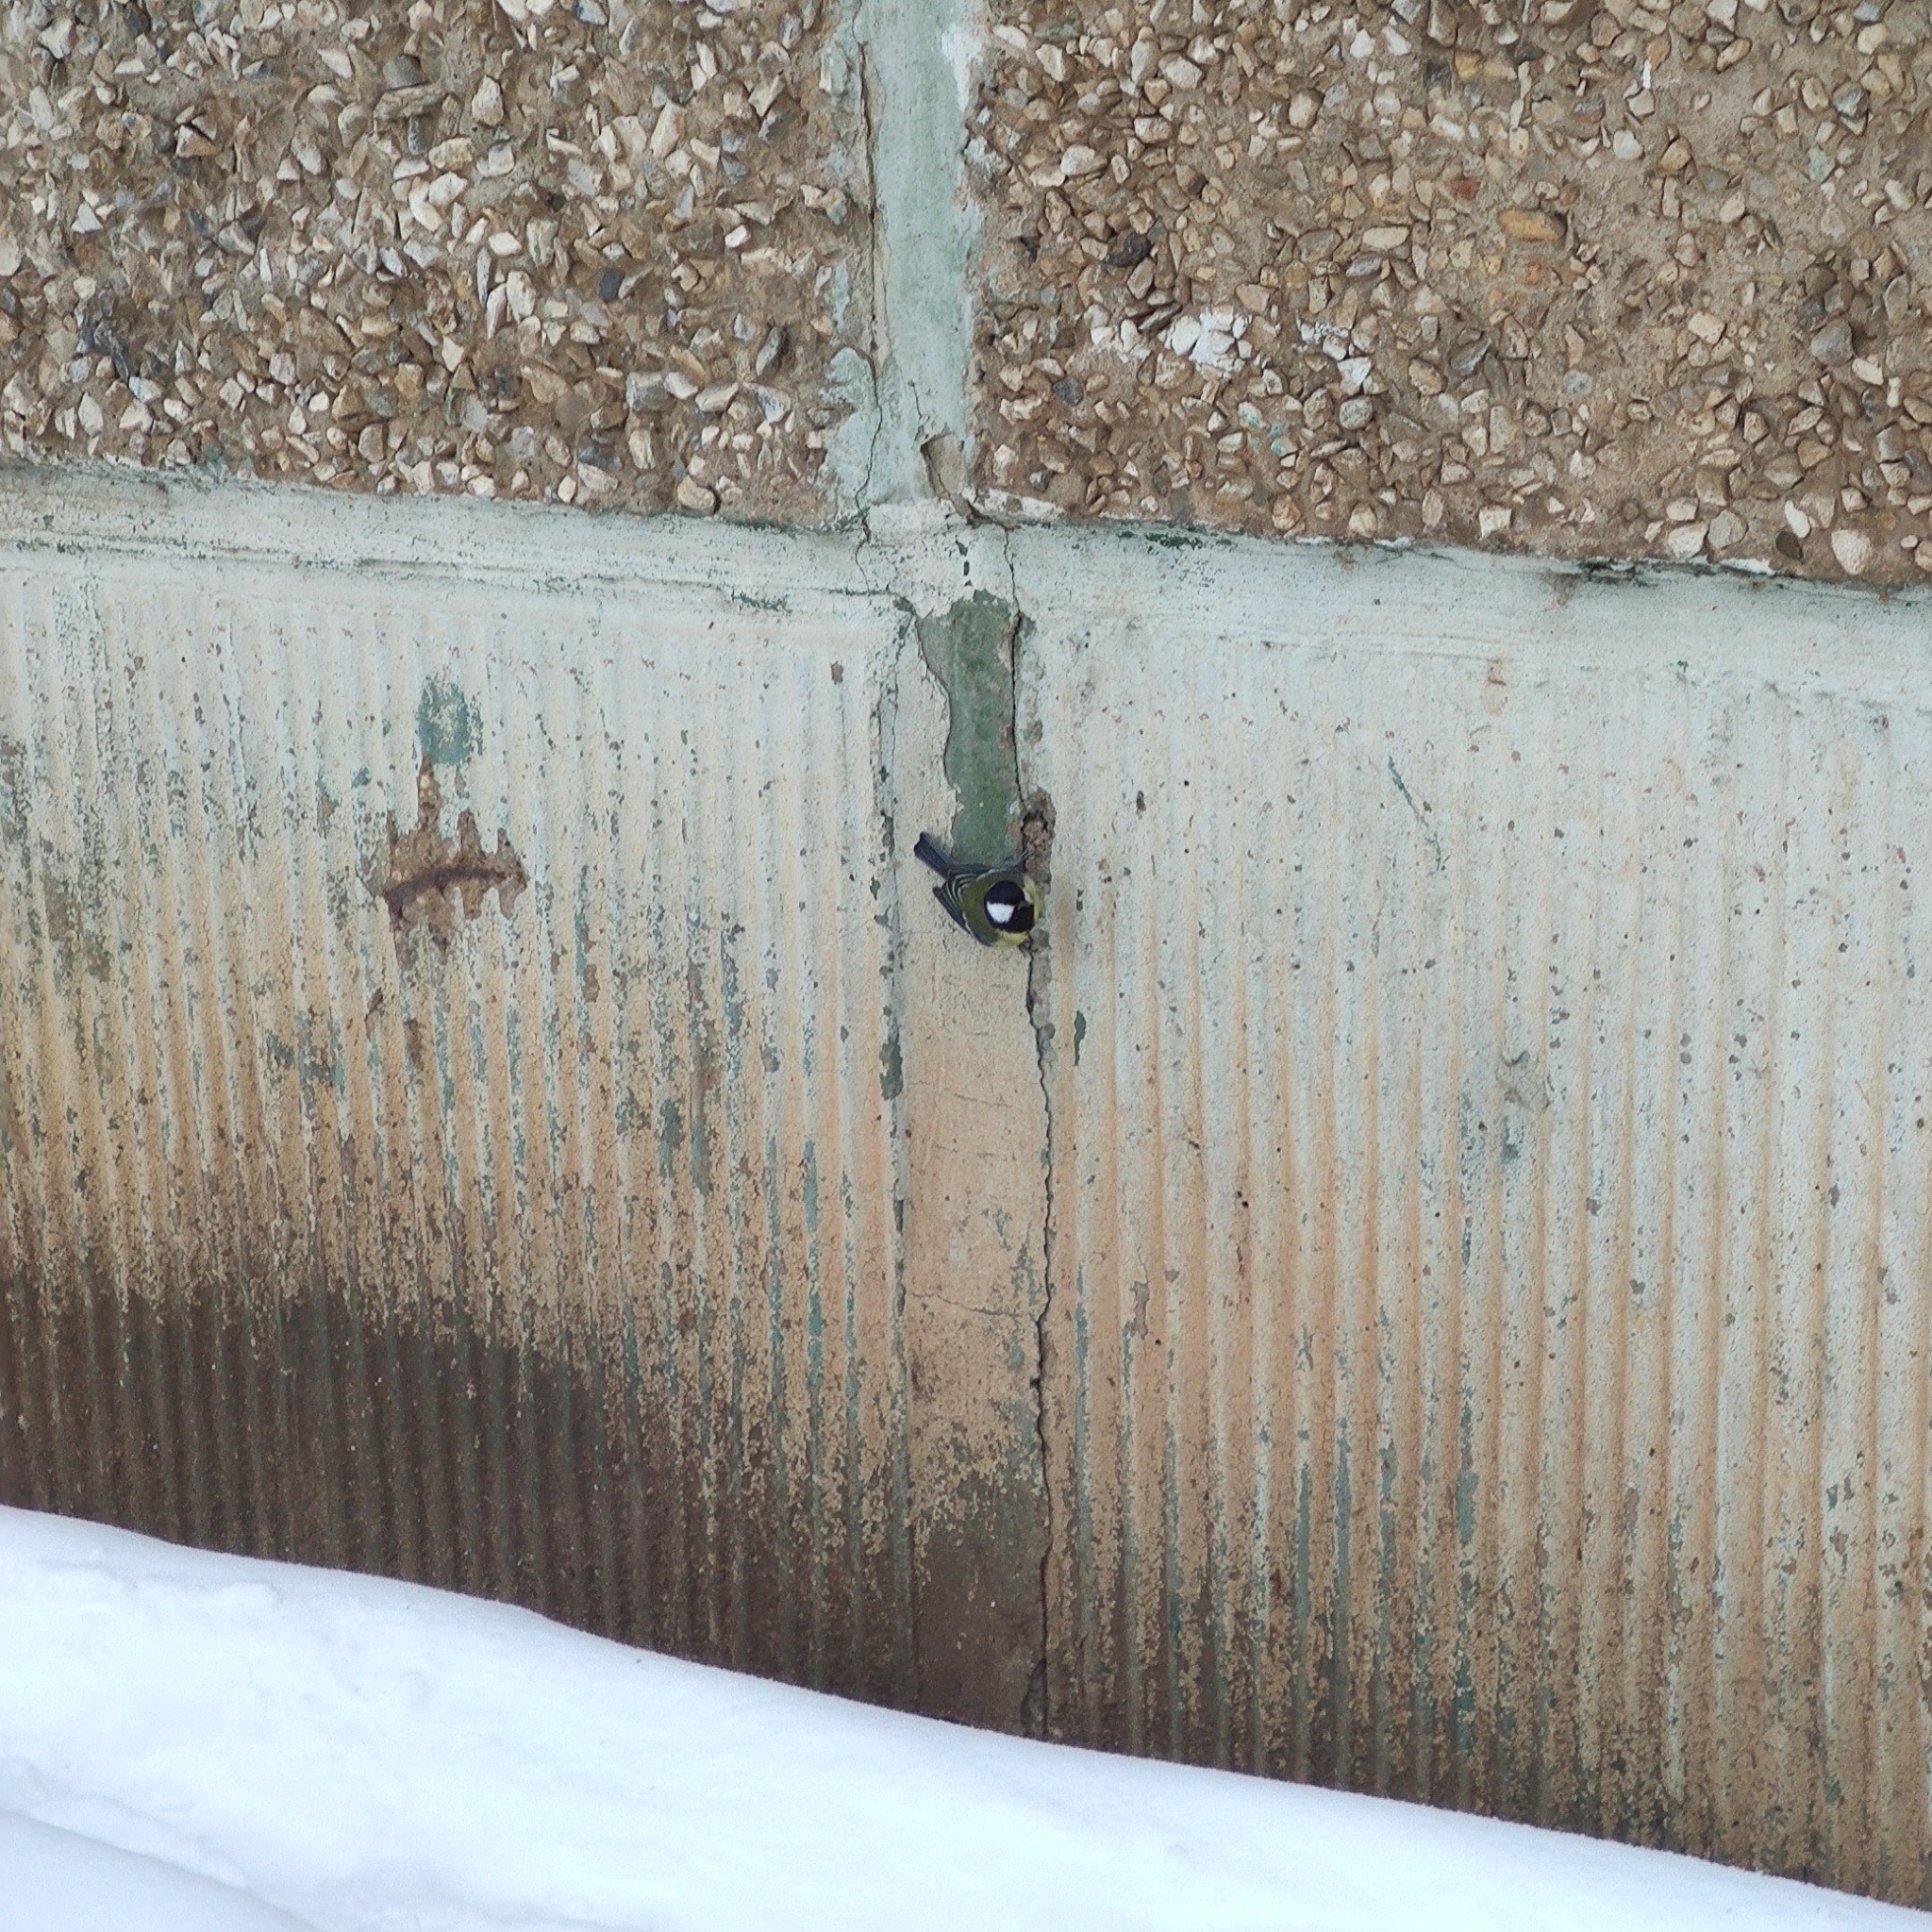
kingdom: Animalia
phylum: Chordata
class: Aves
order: Passeriformes
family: Paridae
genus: Parus
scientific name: Parus major
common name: Great tit
